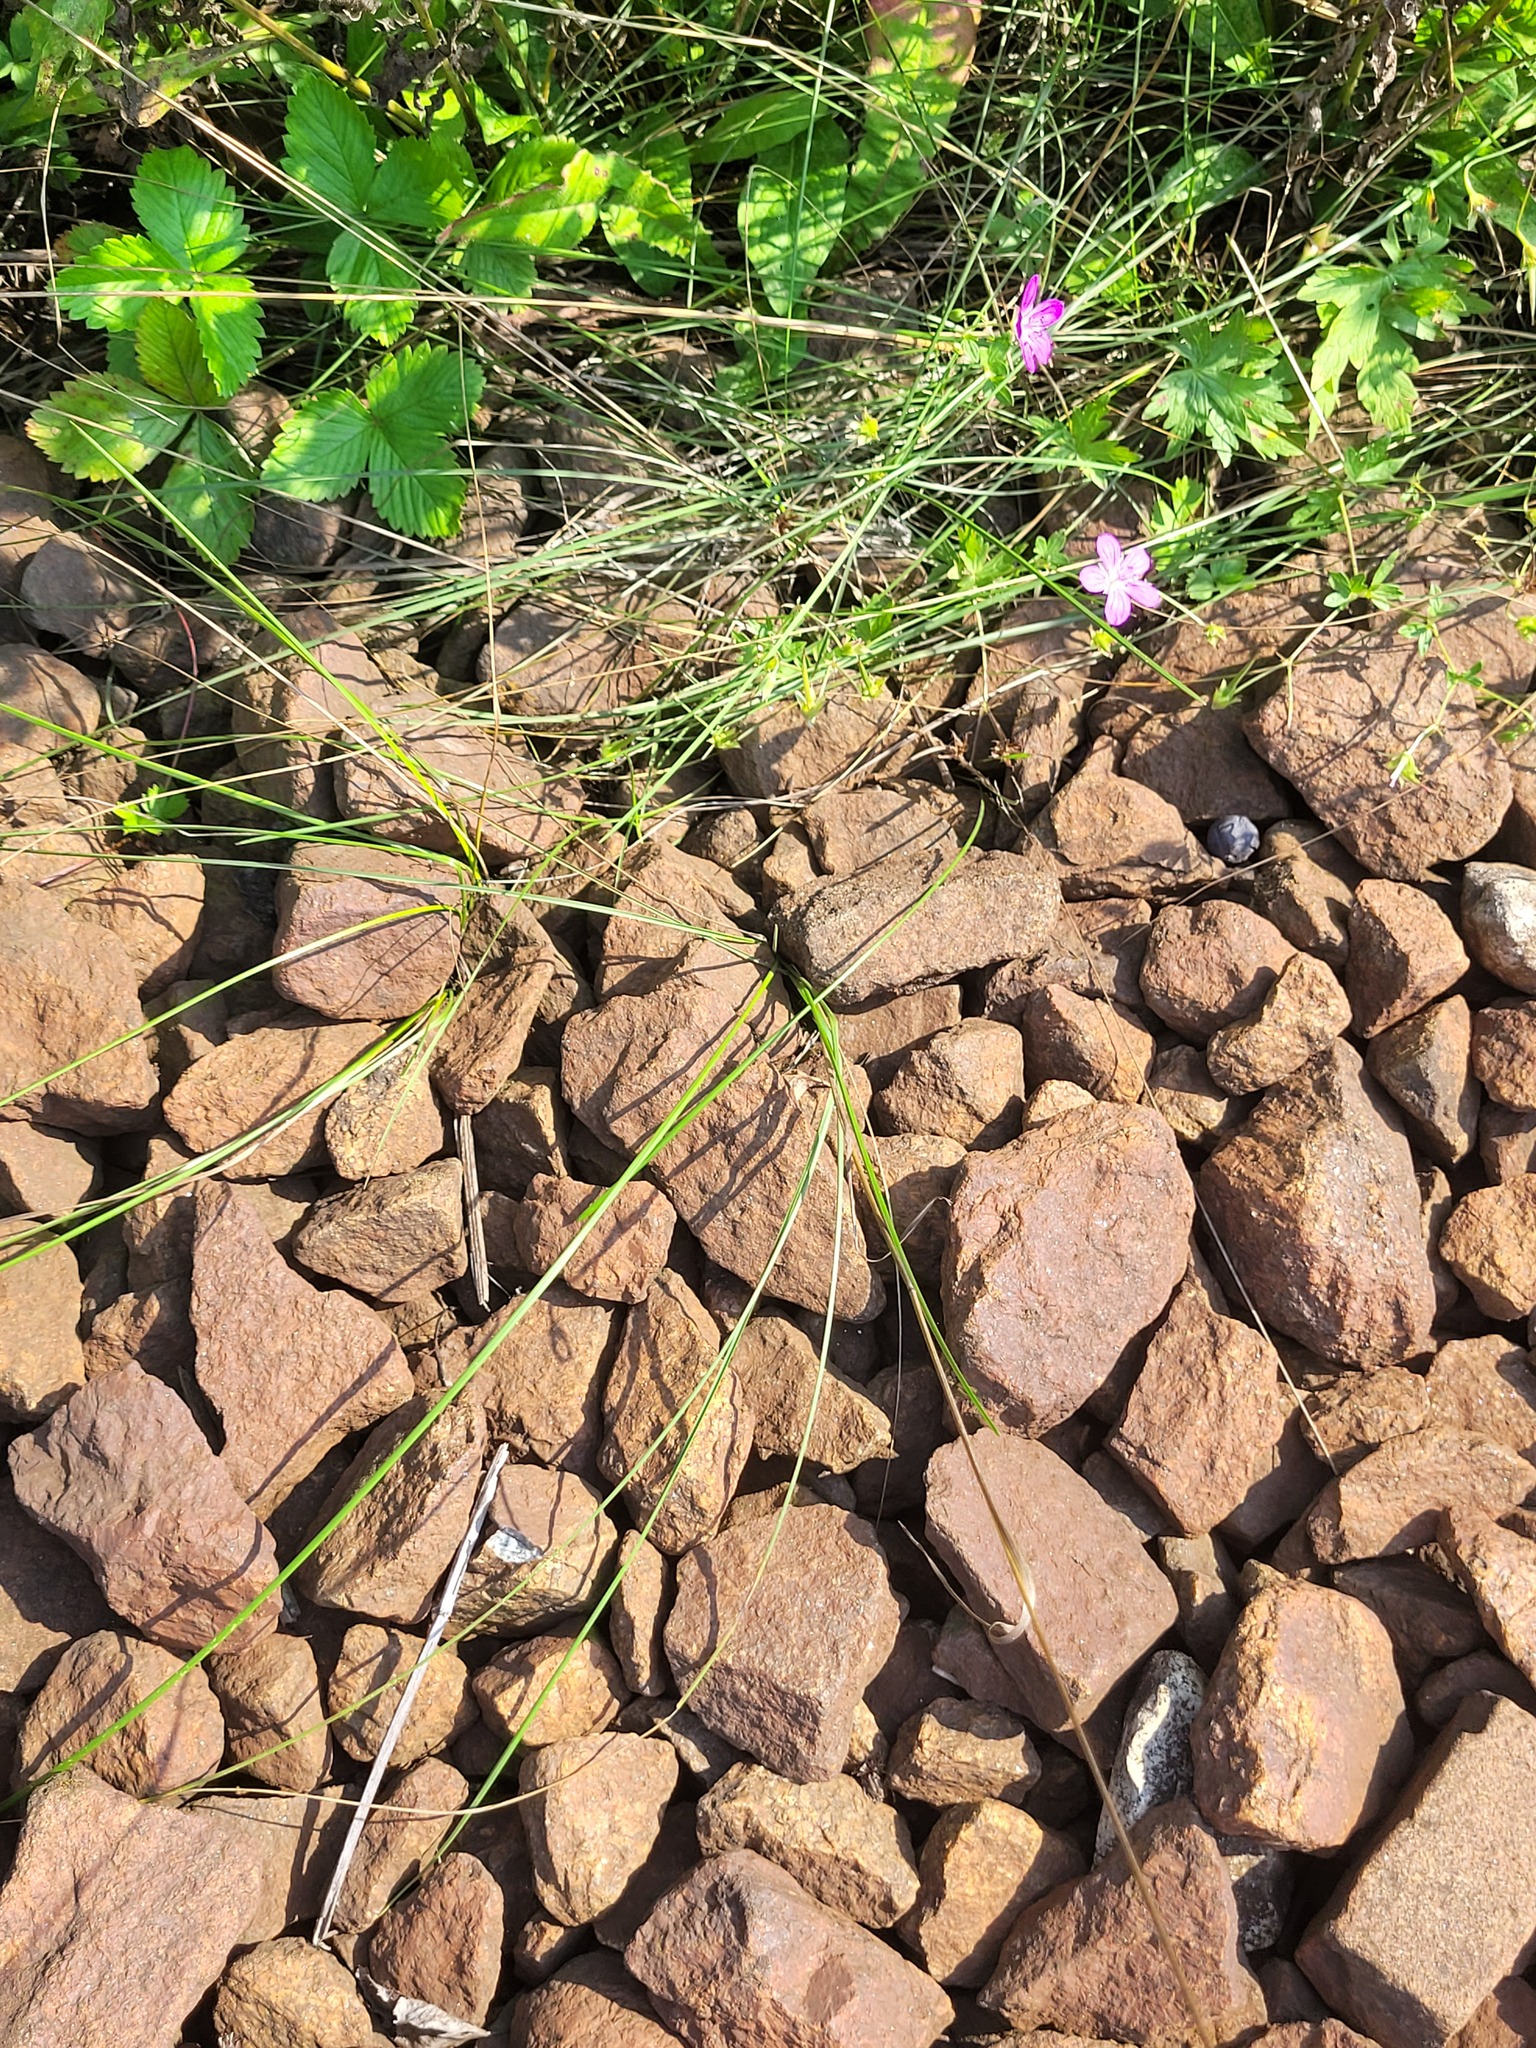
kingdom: Plantae
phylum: Tracheophyta
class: Liliopsida
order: Poales
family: Poaceae
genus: Poa
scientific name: Poa angustifolia
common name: Narrow-leaved meadow-grass
